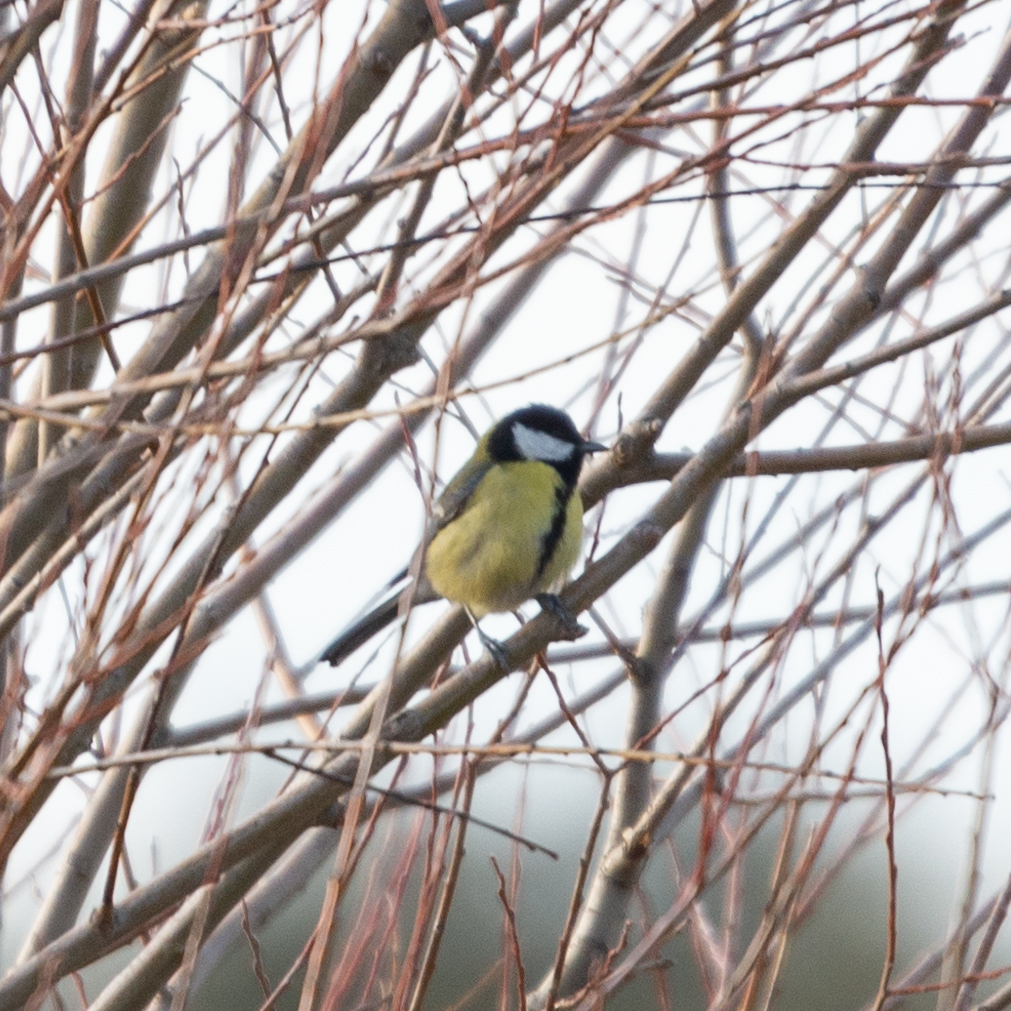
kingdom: Animalia
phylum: Chordata
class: Aves
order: Passeriformes
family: Paridae
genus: Parus
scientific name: Parus major
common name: Great tit
